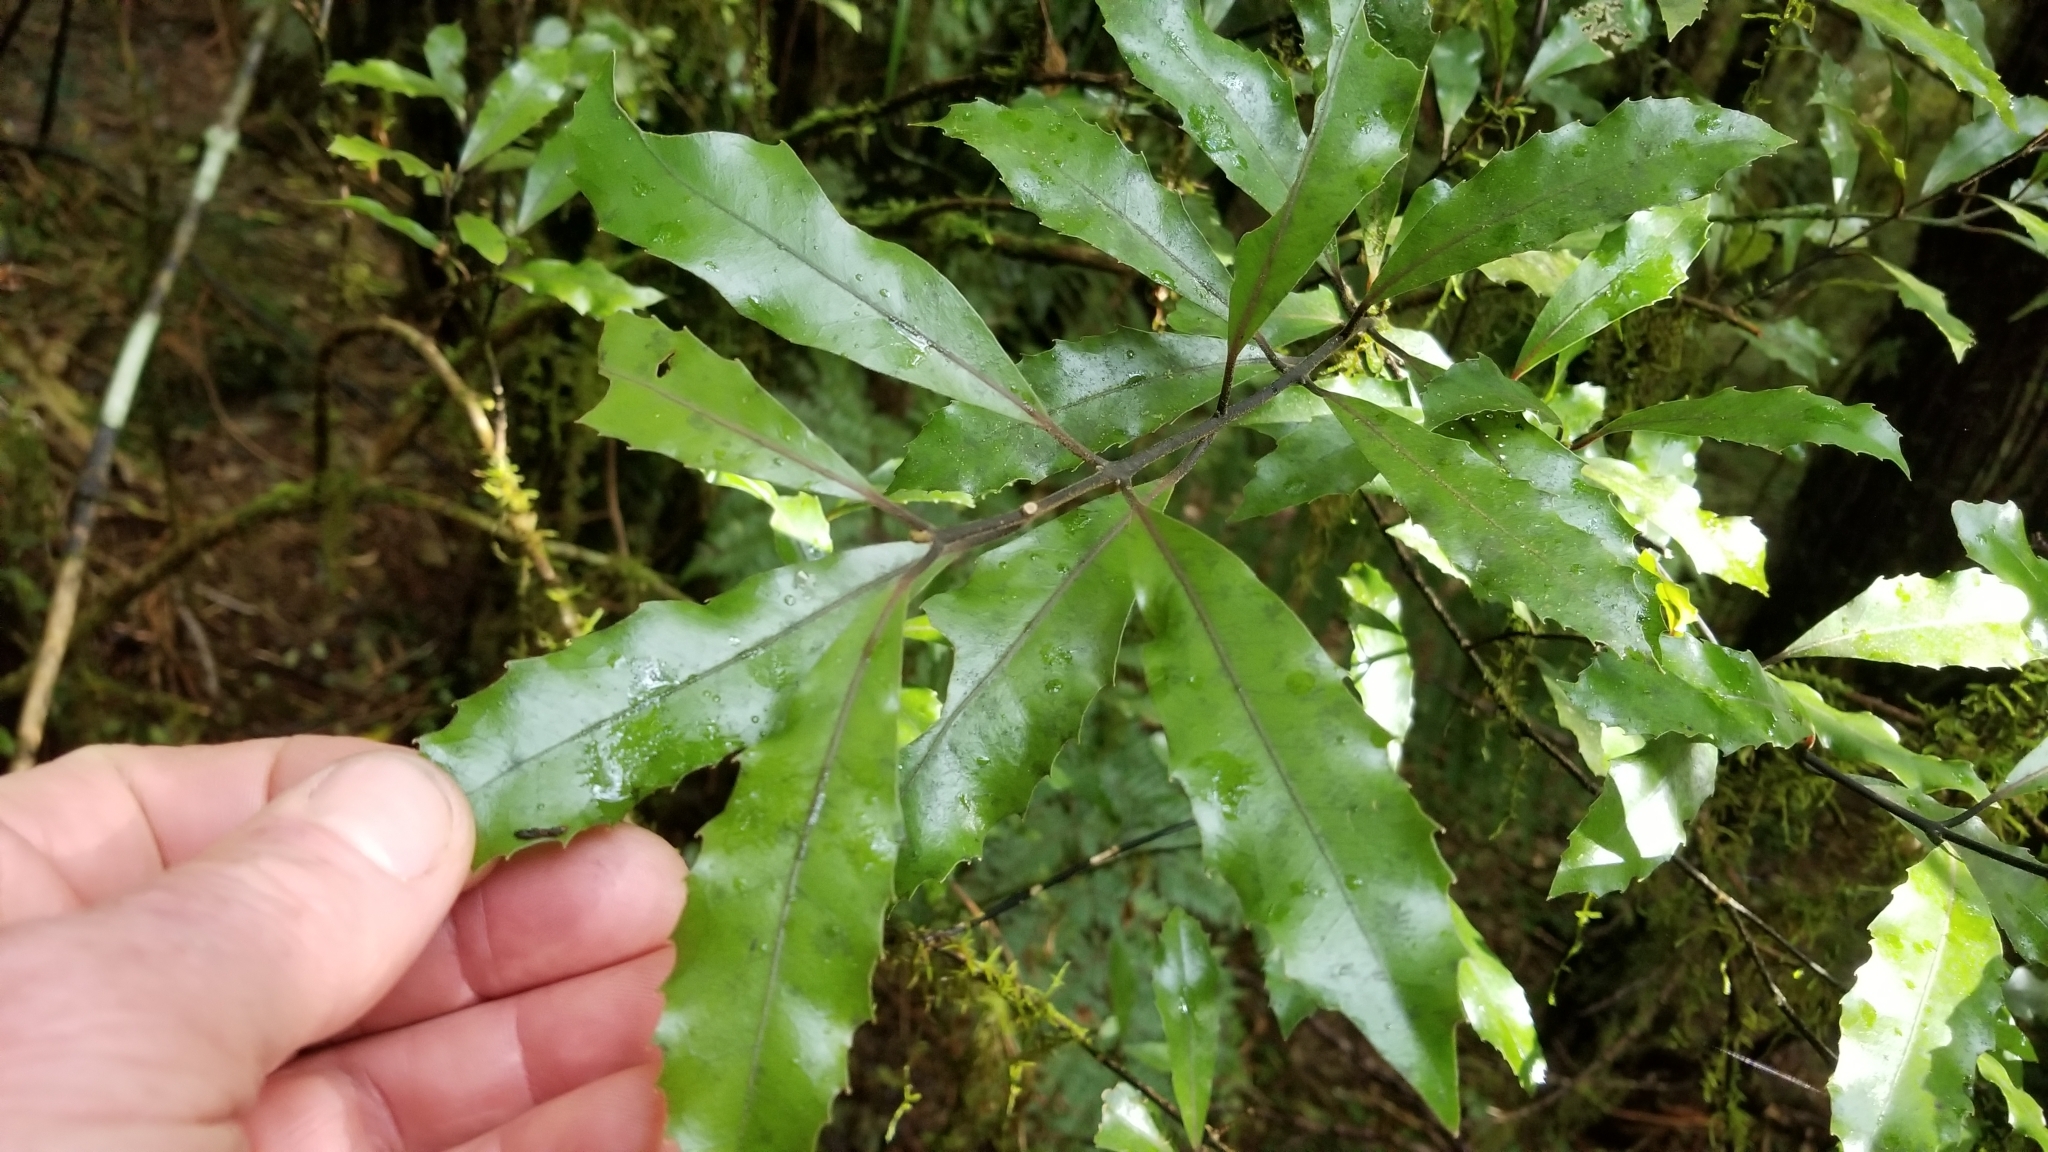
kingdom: Plantae
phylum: Tracheophyta
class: Magnoliopsida
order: Laurales
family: Monimiaceae
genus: Hedycarya
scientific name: Hedycarya arborea
